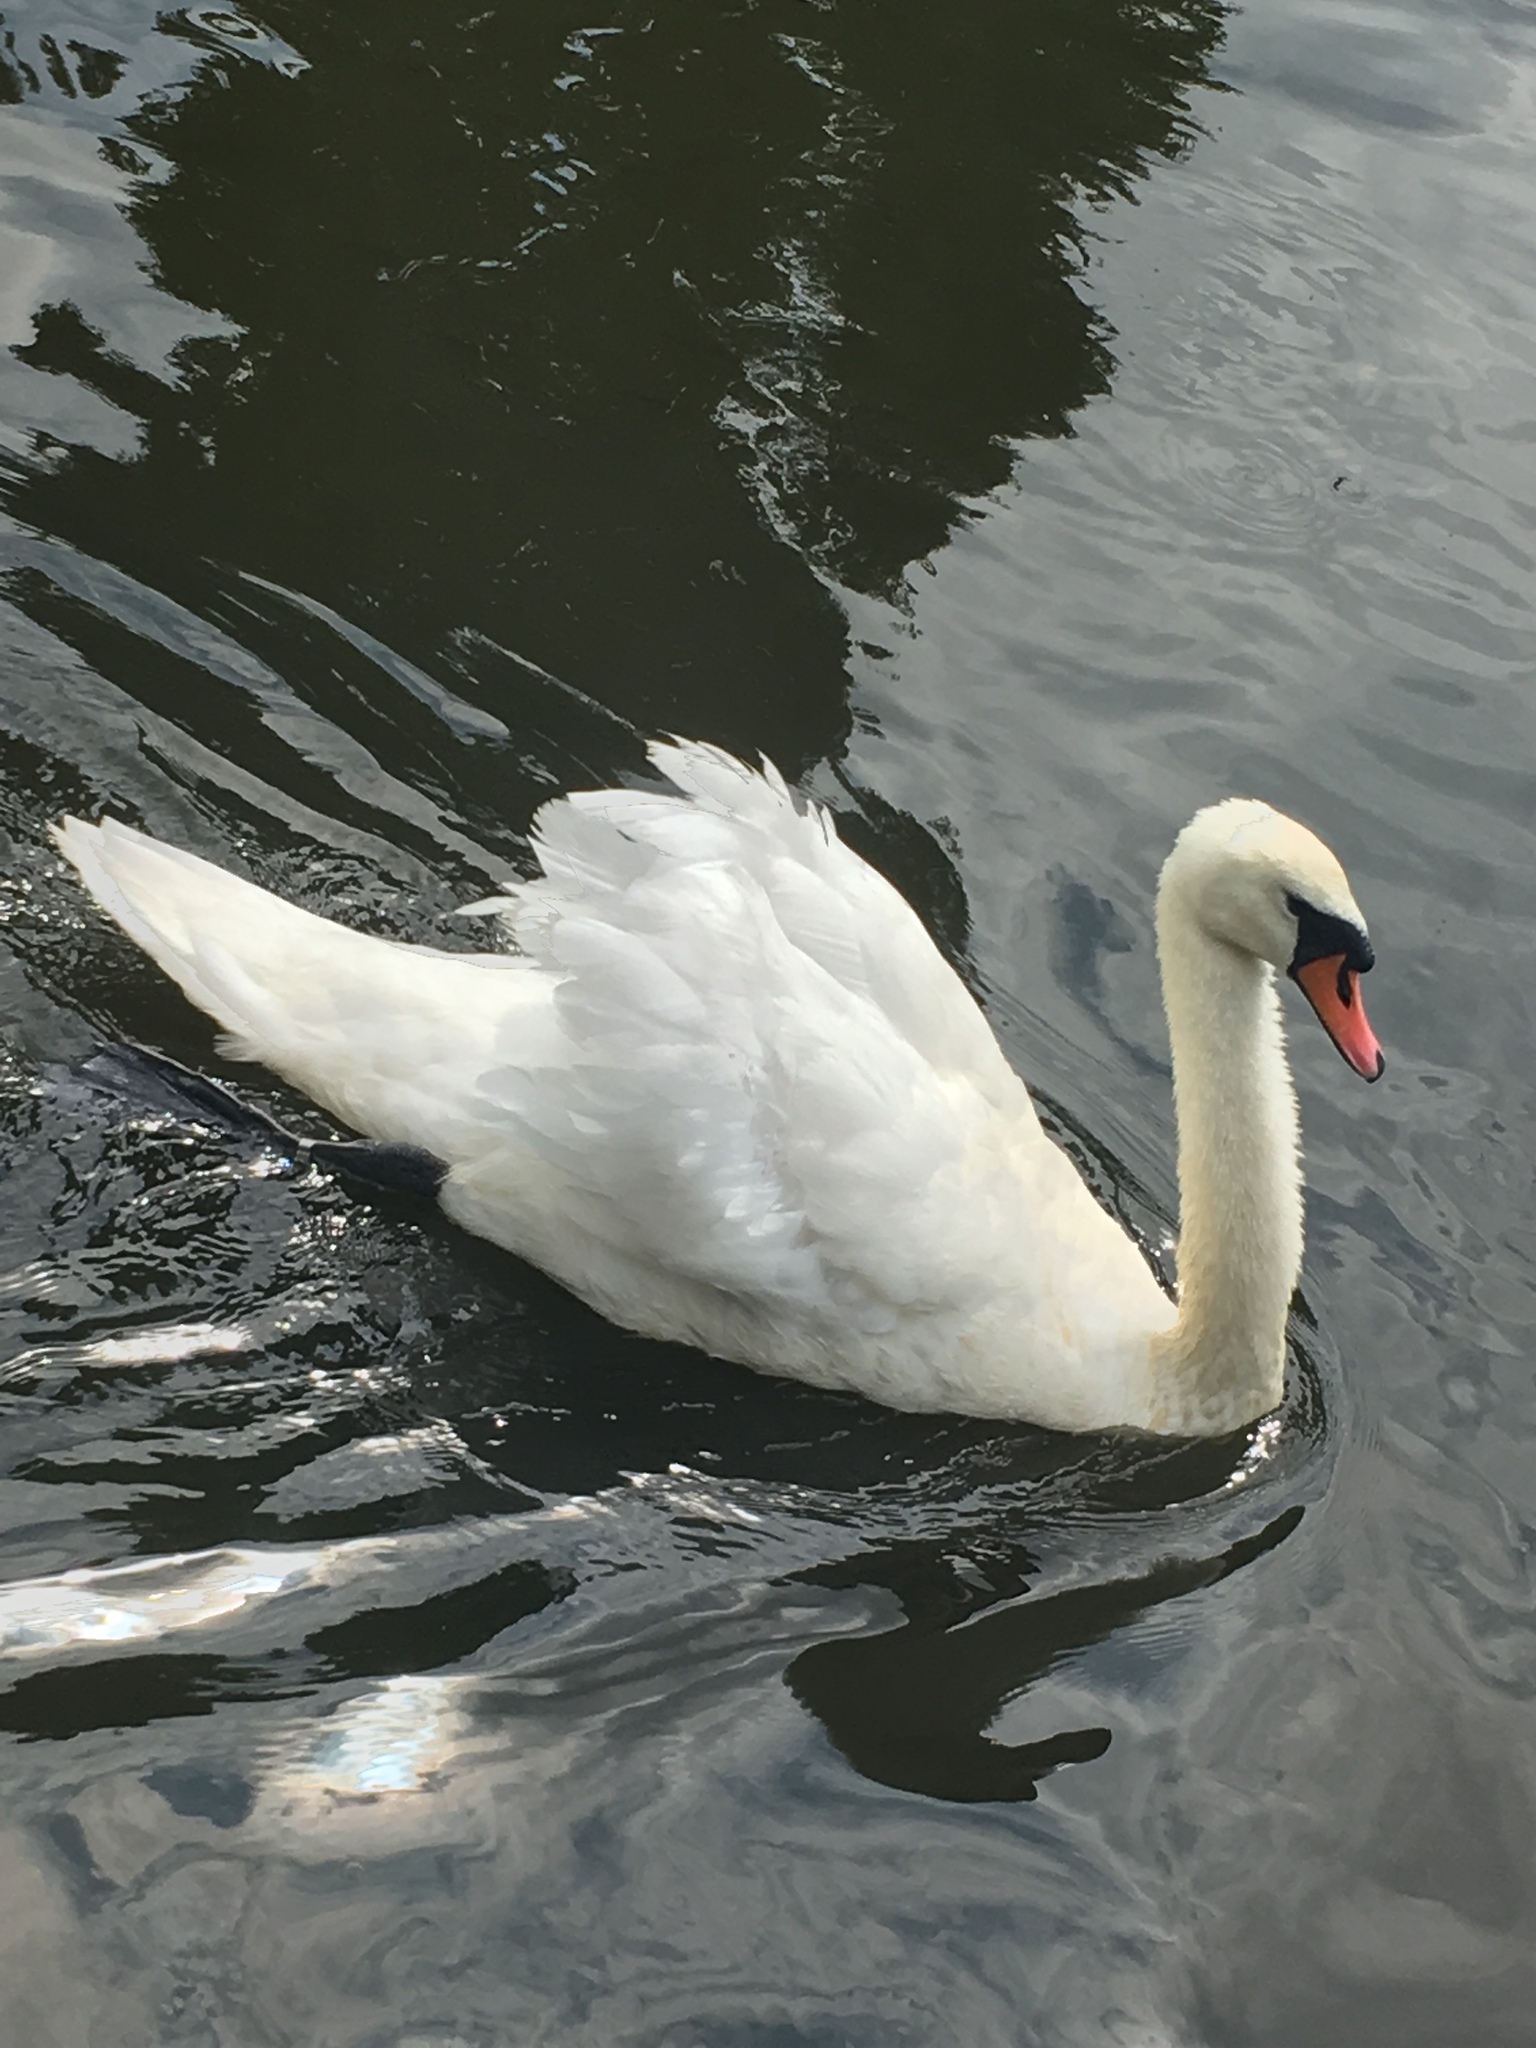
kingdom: Animalia
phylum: Chordata
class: Aves
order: Anseriformes
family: Anatidae
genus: Cygnus
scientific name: Cygnus olor
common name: Mute swan
